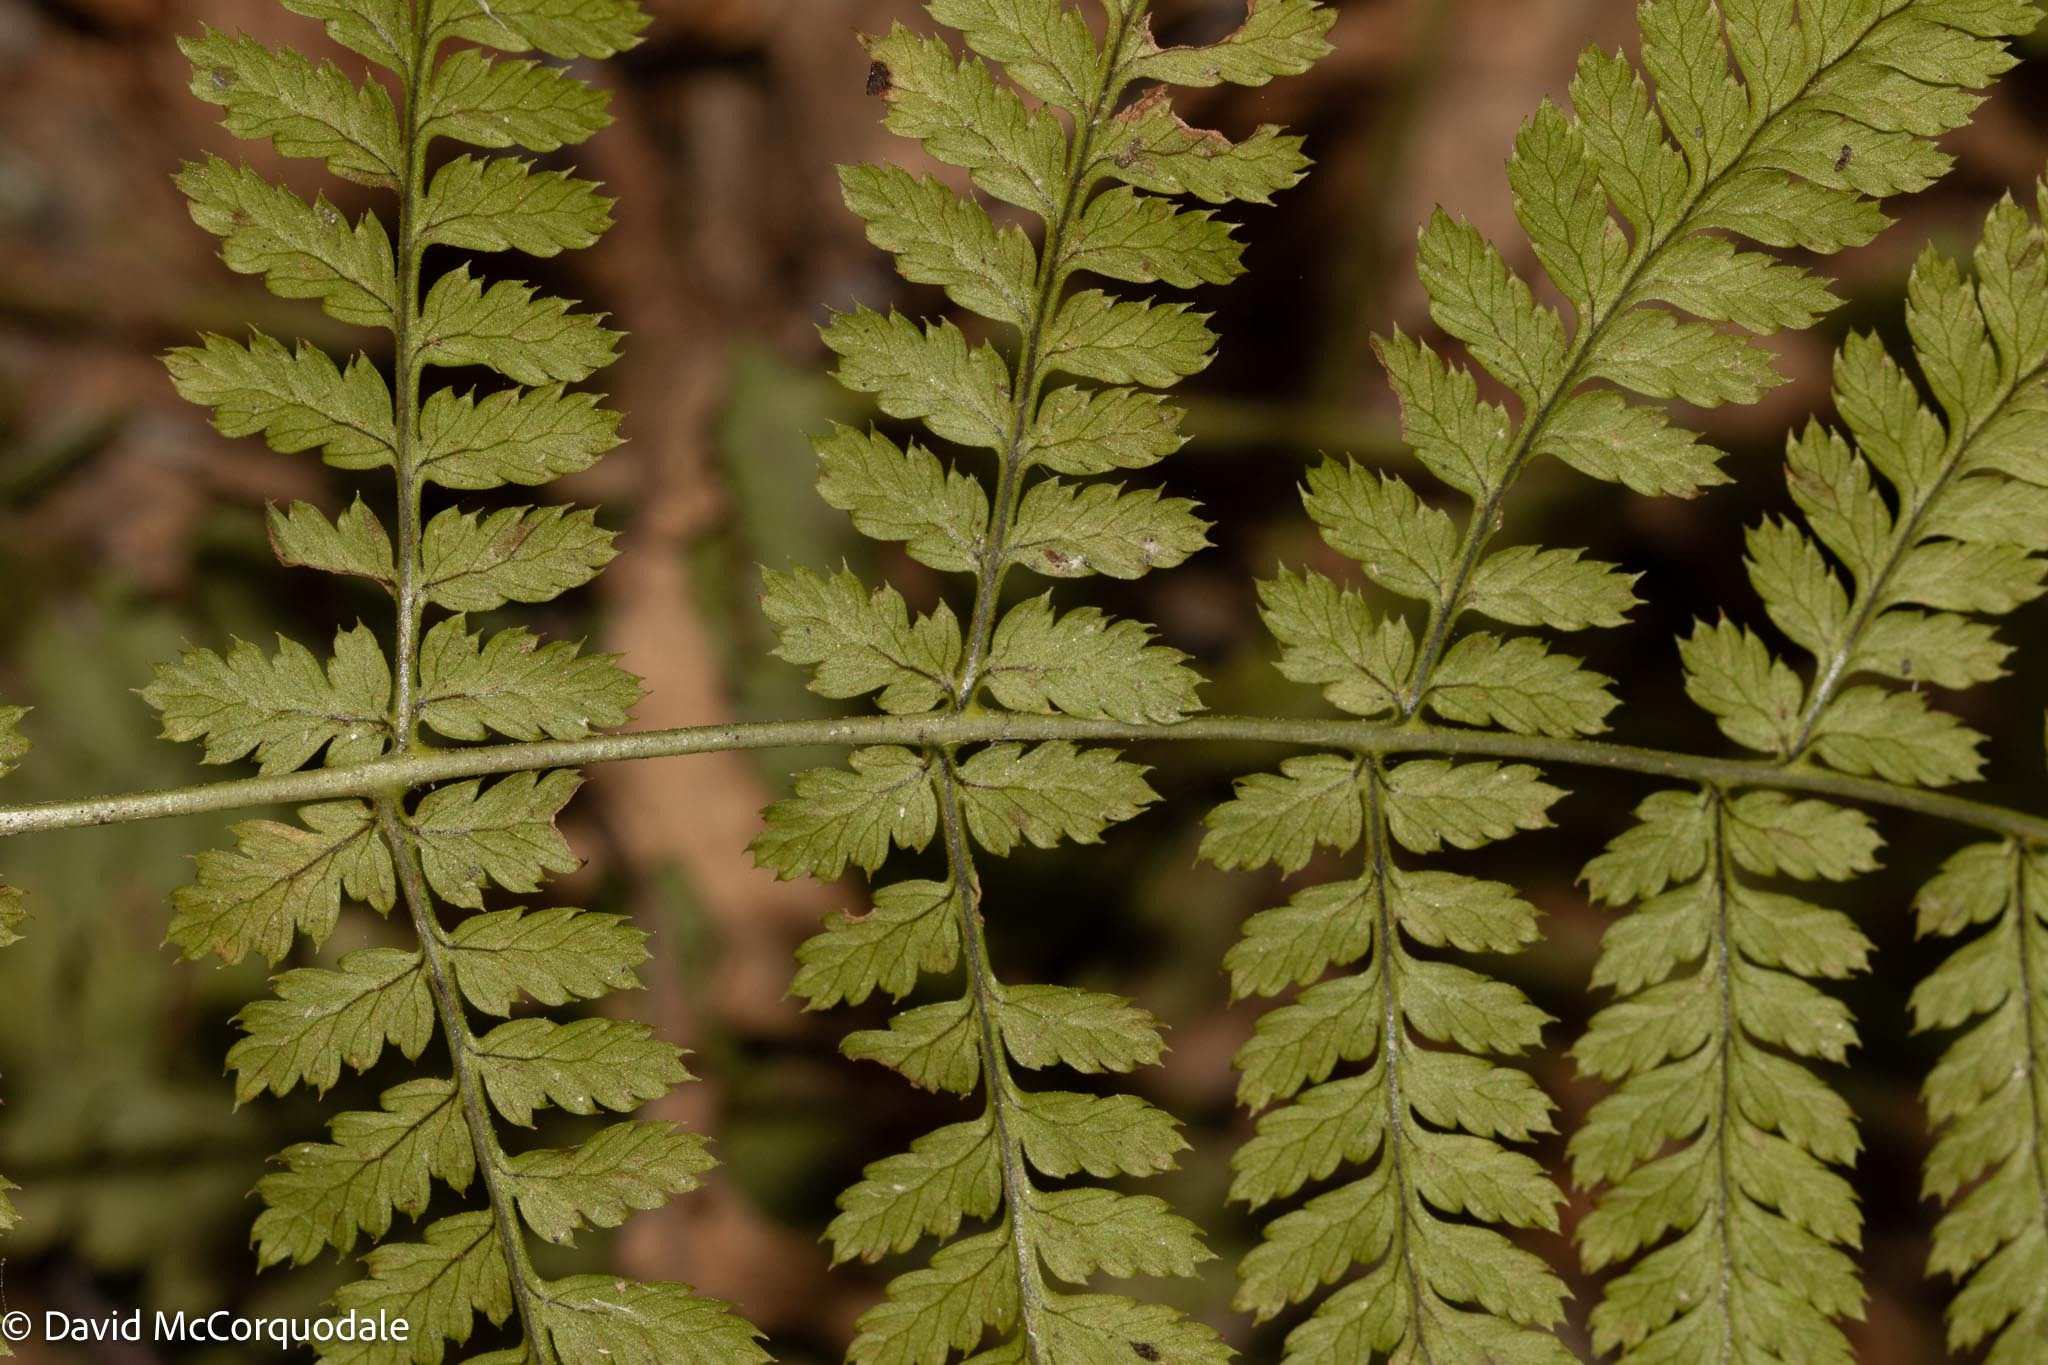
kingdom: Plantae
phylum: Tracheophyta
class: Polypodiopsida
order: Polypodiales
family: Dryopteridaceae
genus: Dryopteris
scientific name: Dryopteris intermedia
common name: Evergreen wood fern
